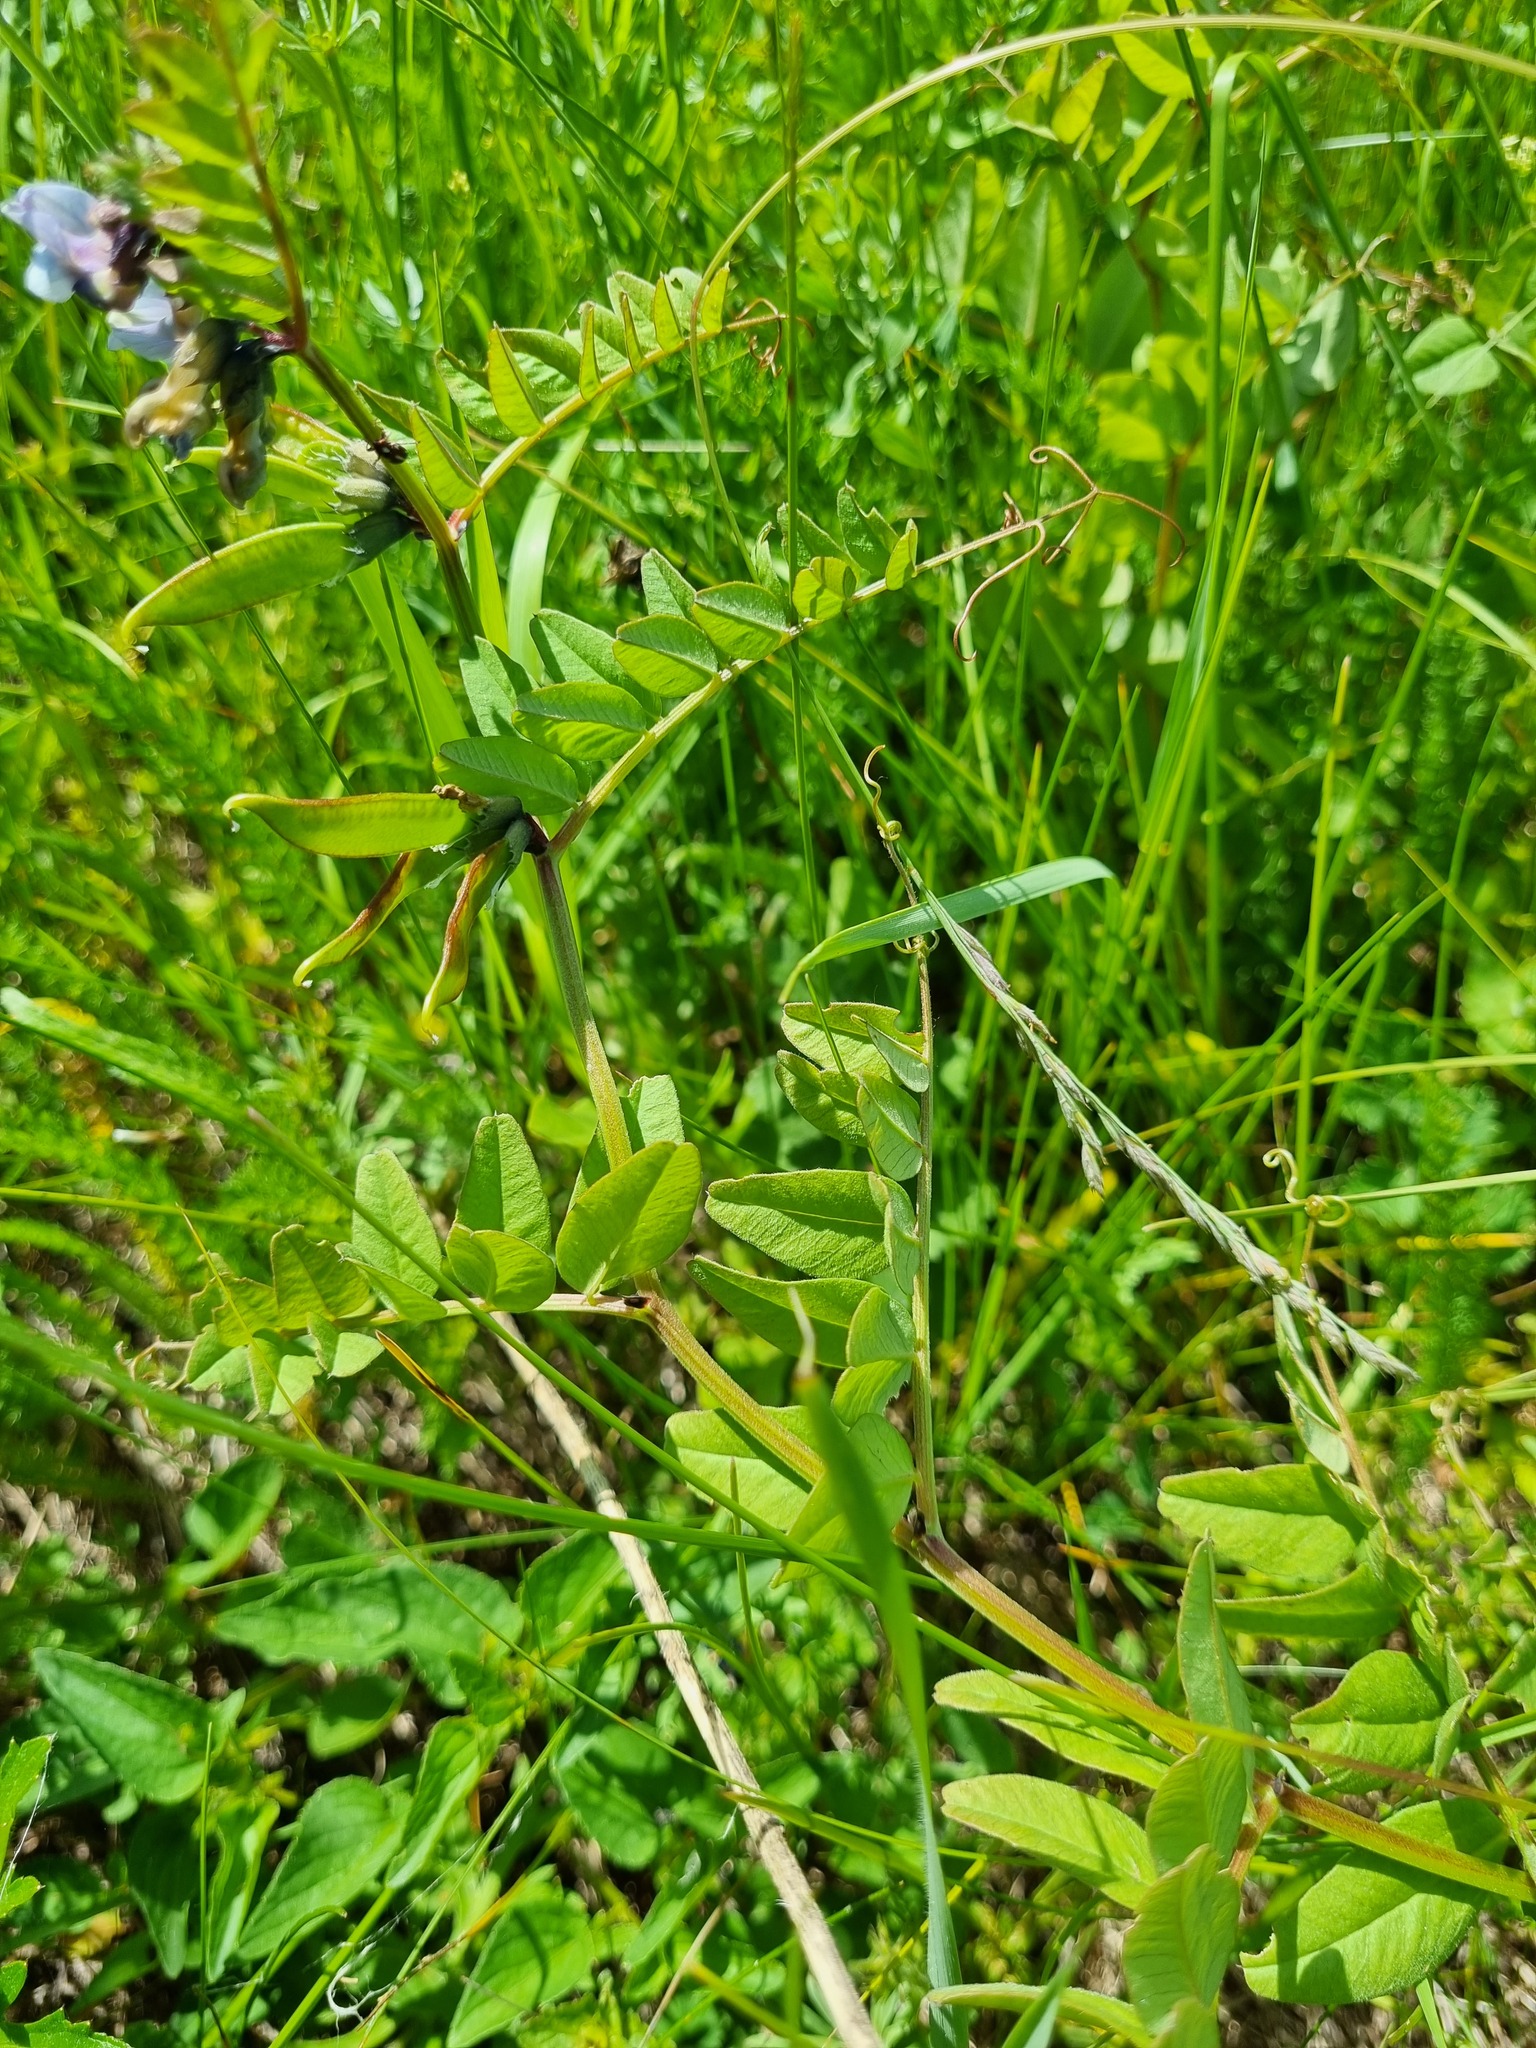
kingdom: Plantae
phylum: Tracheophyta
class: Magnoliopsida
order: Fabales
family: Fabaceae
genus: Vicia
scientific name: Vicia sepium
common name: Bush vetch
